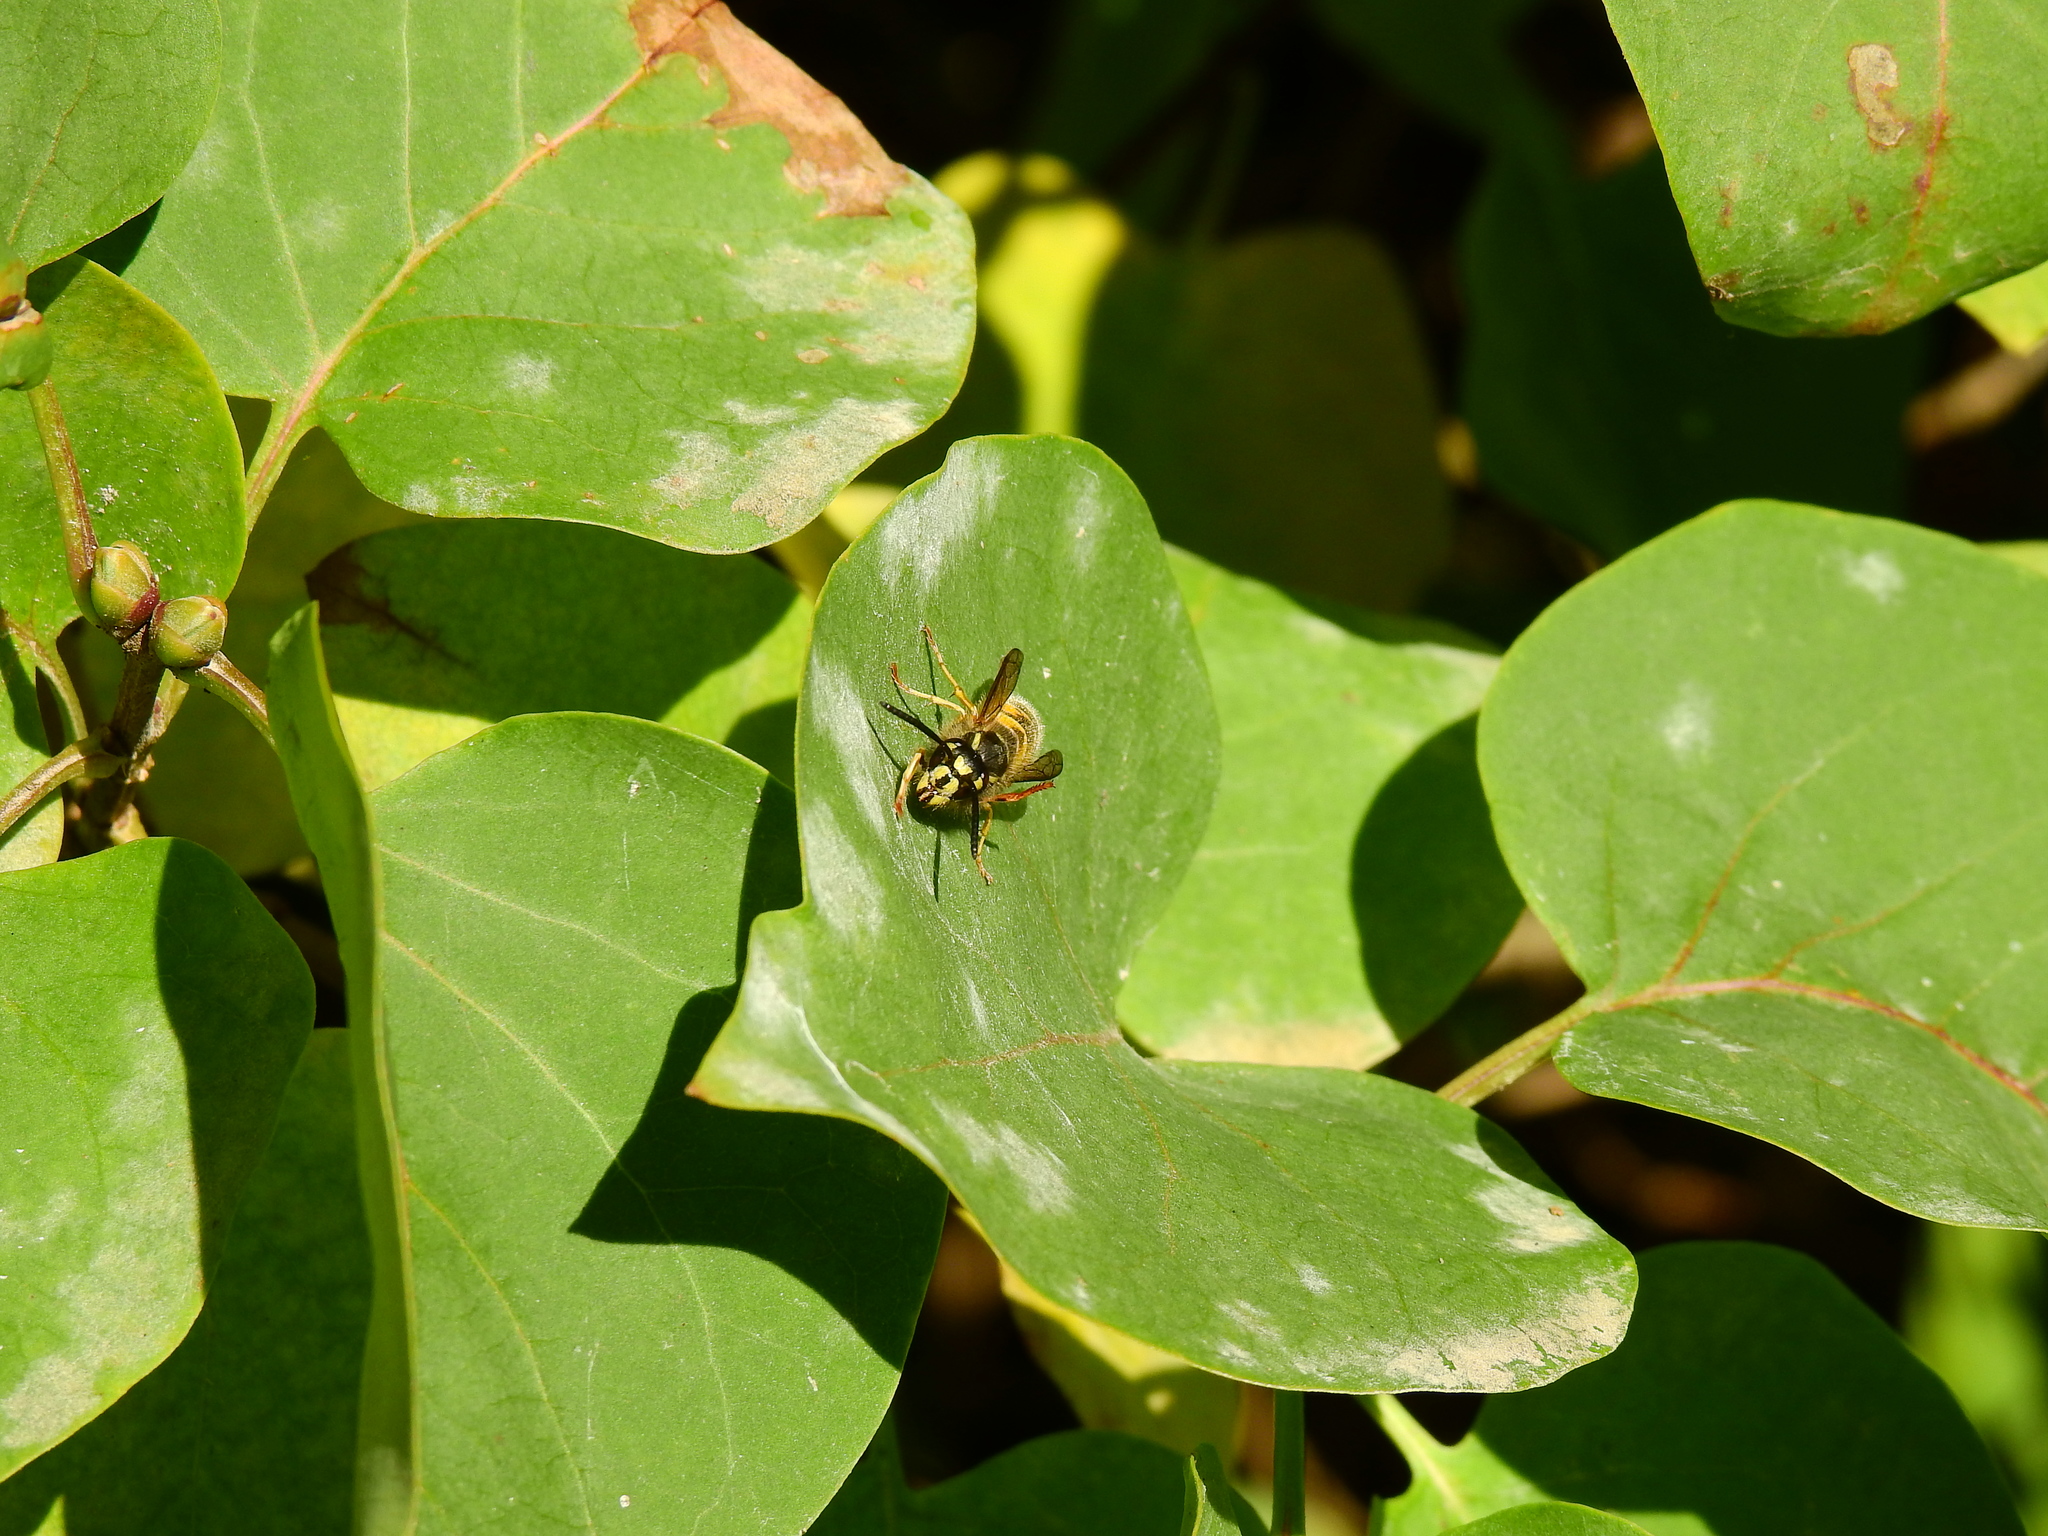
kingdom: Animalia
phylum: Arthropoda
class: Insecta
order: Hymenoptera
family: Vespidae
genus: Vespula
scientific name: Vespula vulgaris
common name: Common wasp
